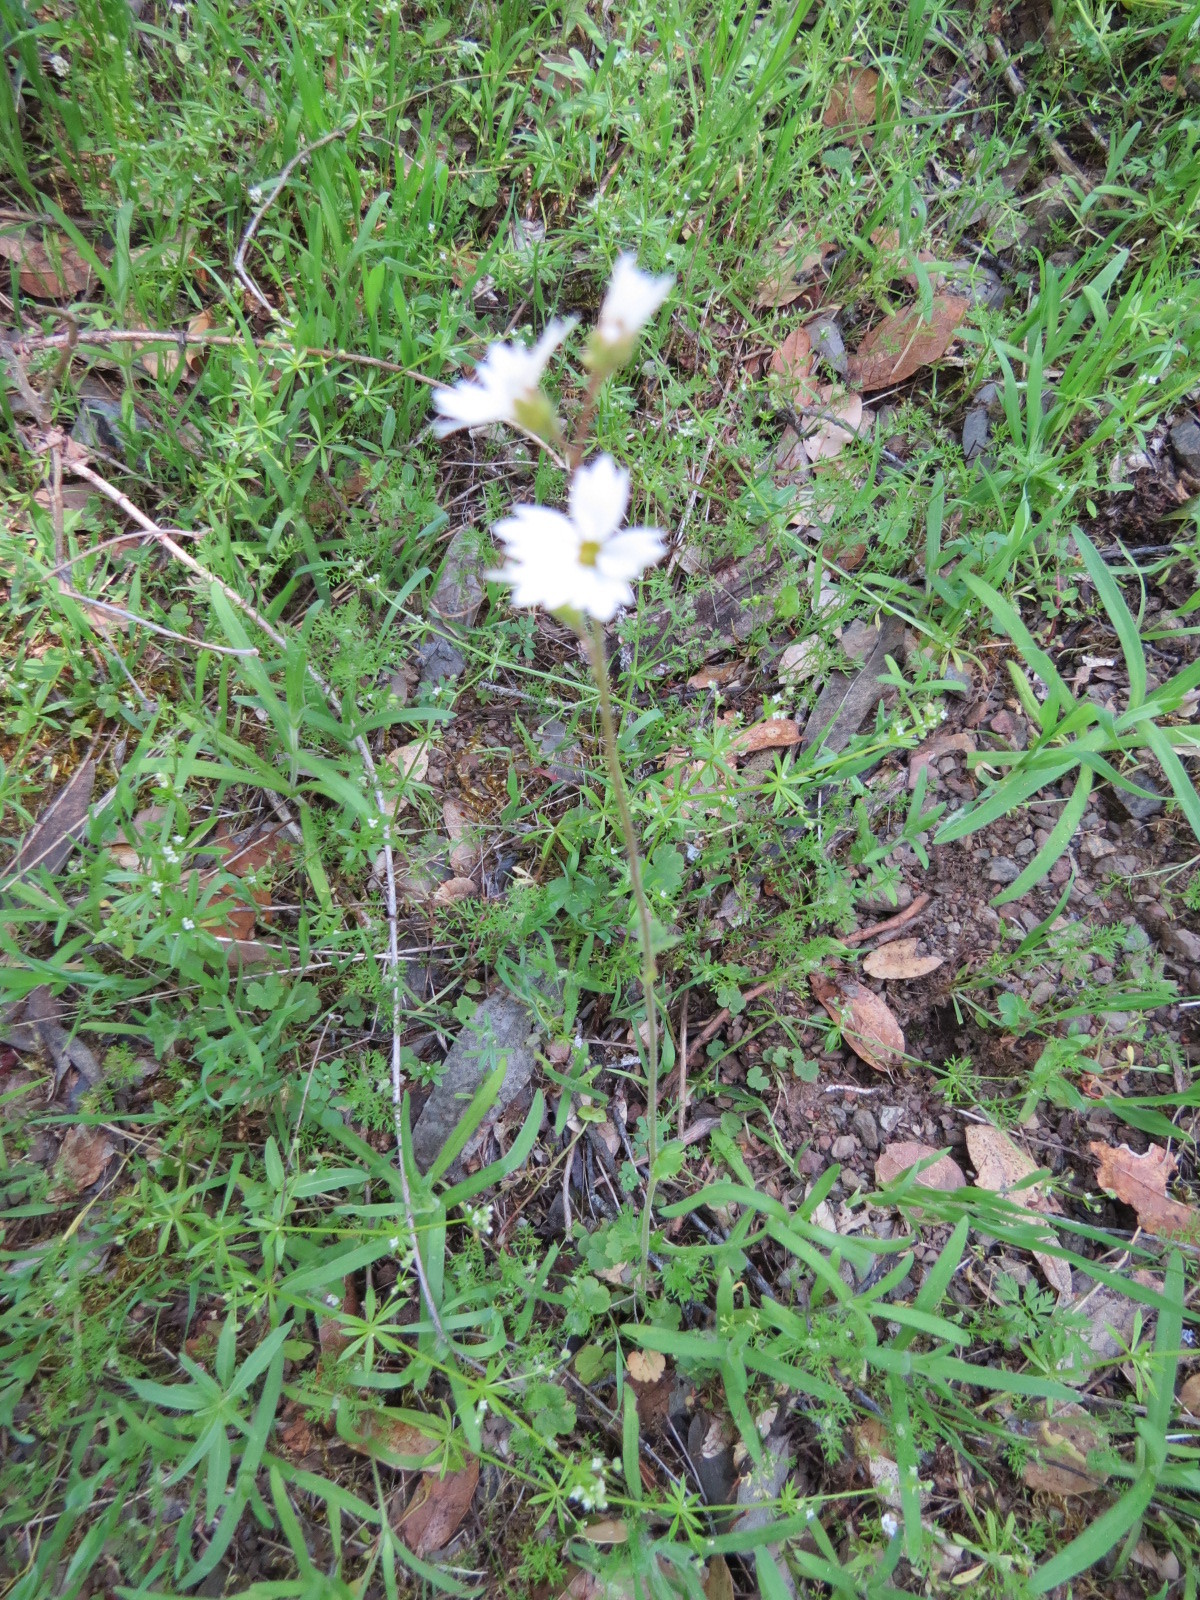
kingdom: Plantae
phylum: Tracheophyta
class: Magnoliopsida
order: Saxifragales
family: Saxifragaceae
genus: Lithophragma
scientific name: Lithophragma affine
